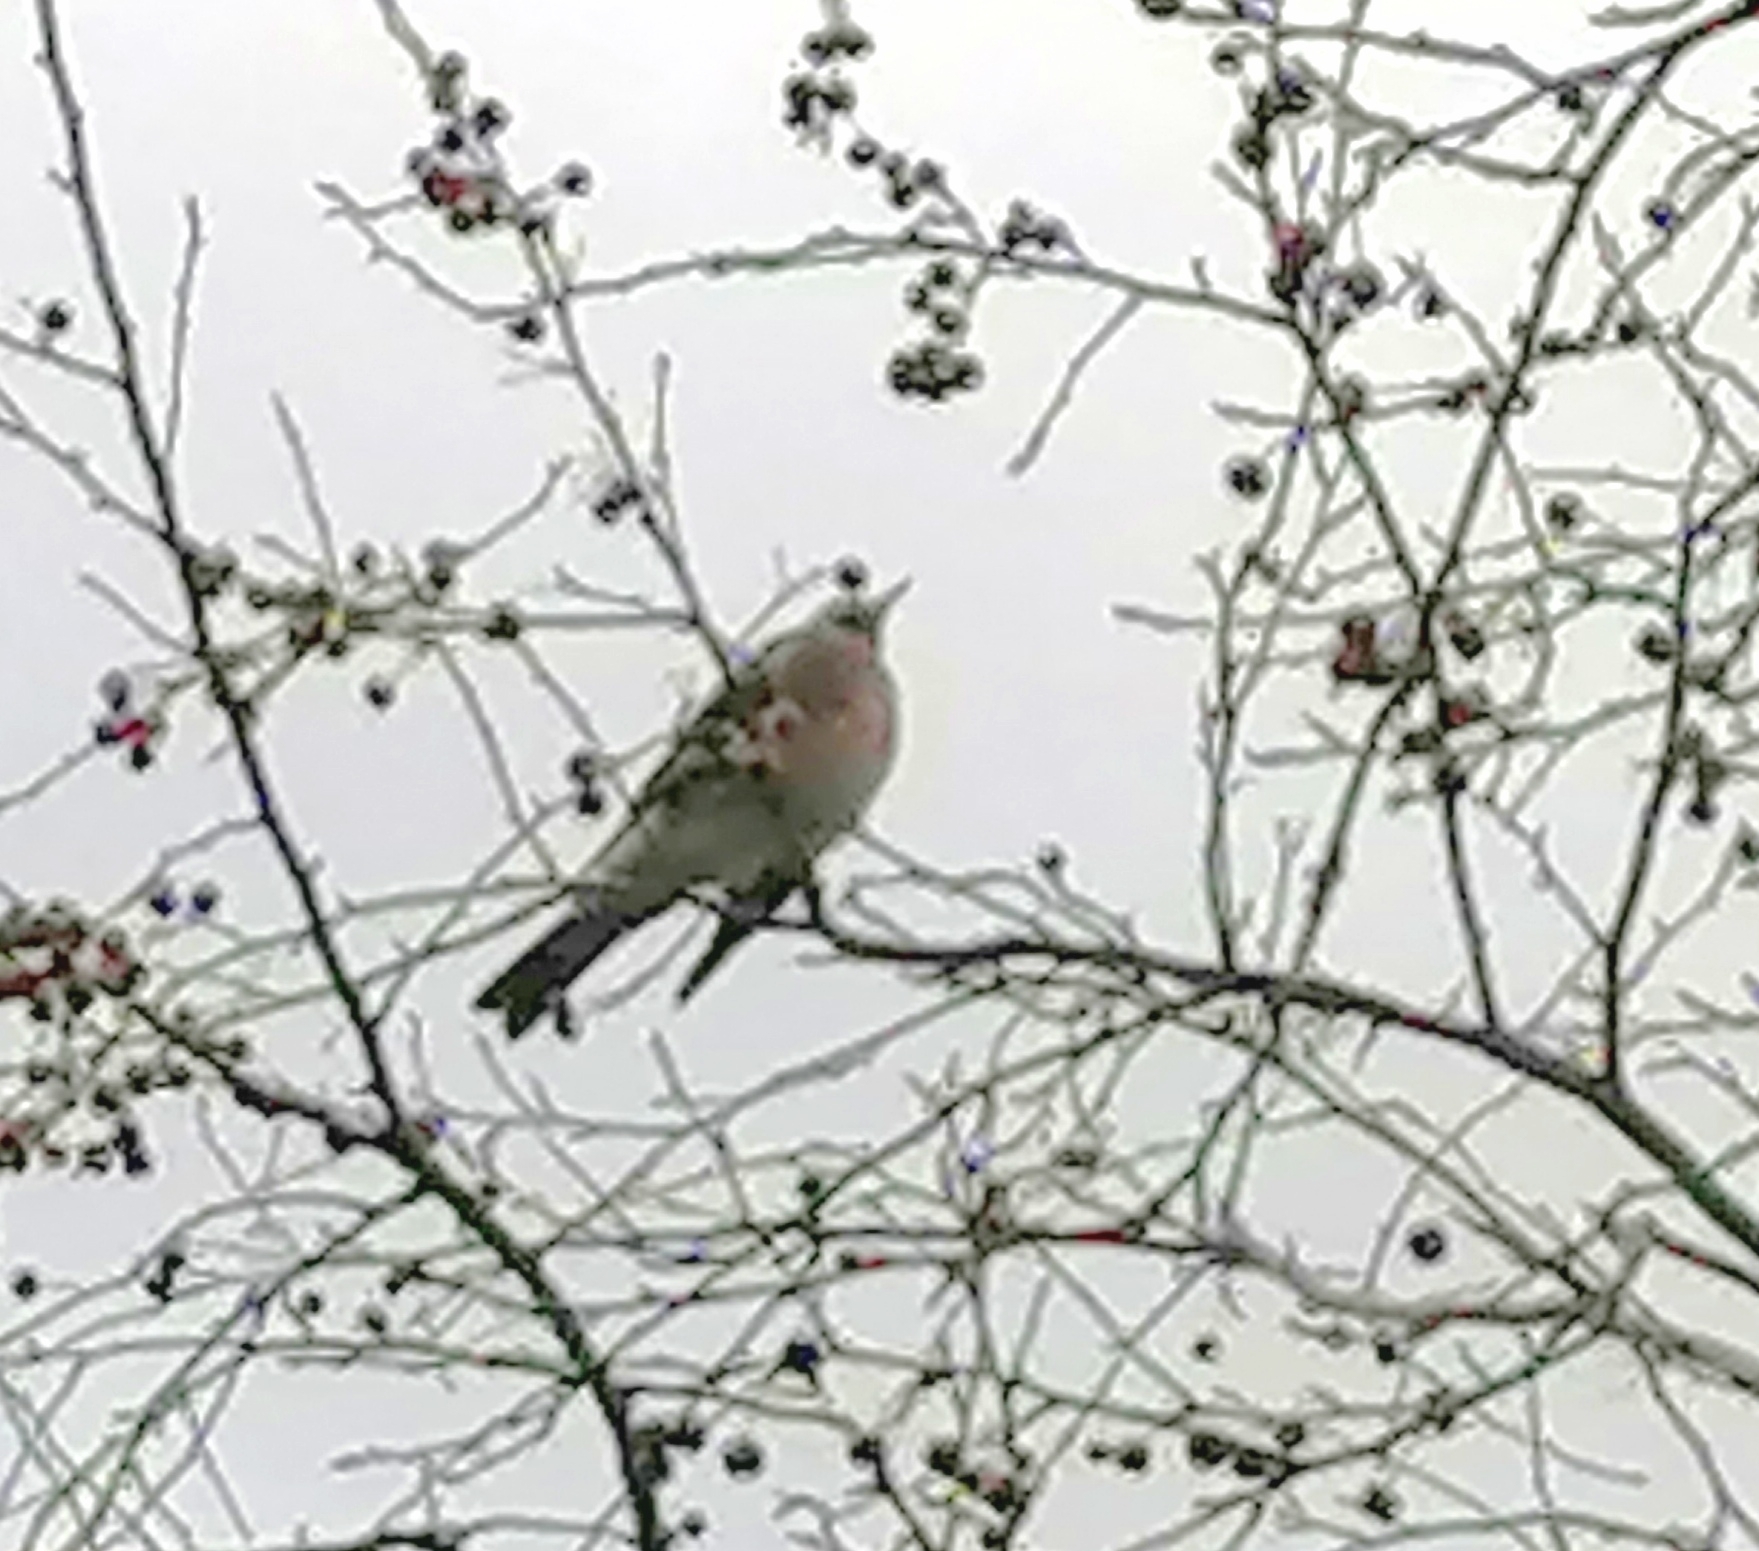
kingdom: Animalia
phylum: Chordata
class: Aves
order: Passeriformes
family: Turdidae
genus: Turdus
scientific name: Turdus pilaris
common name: Fieldfare
